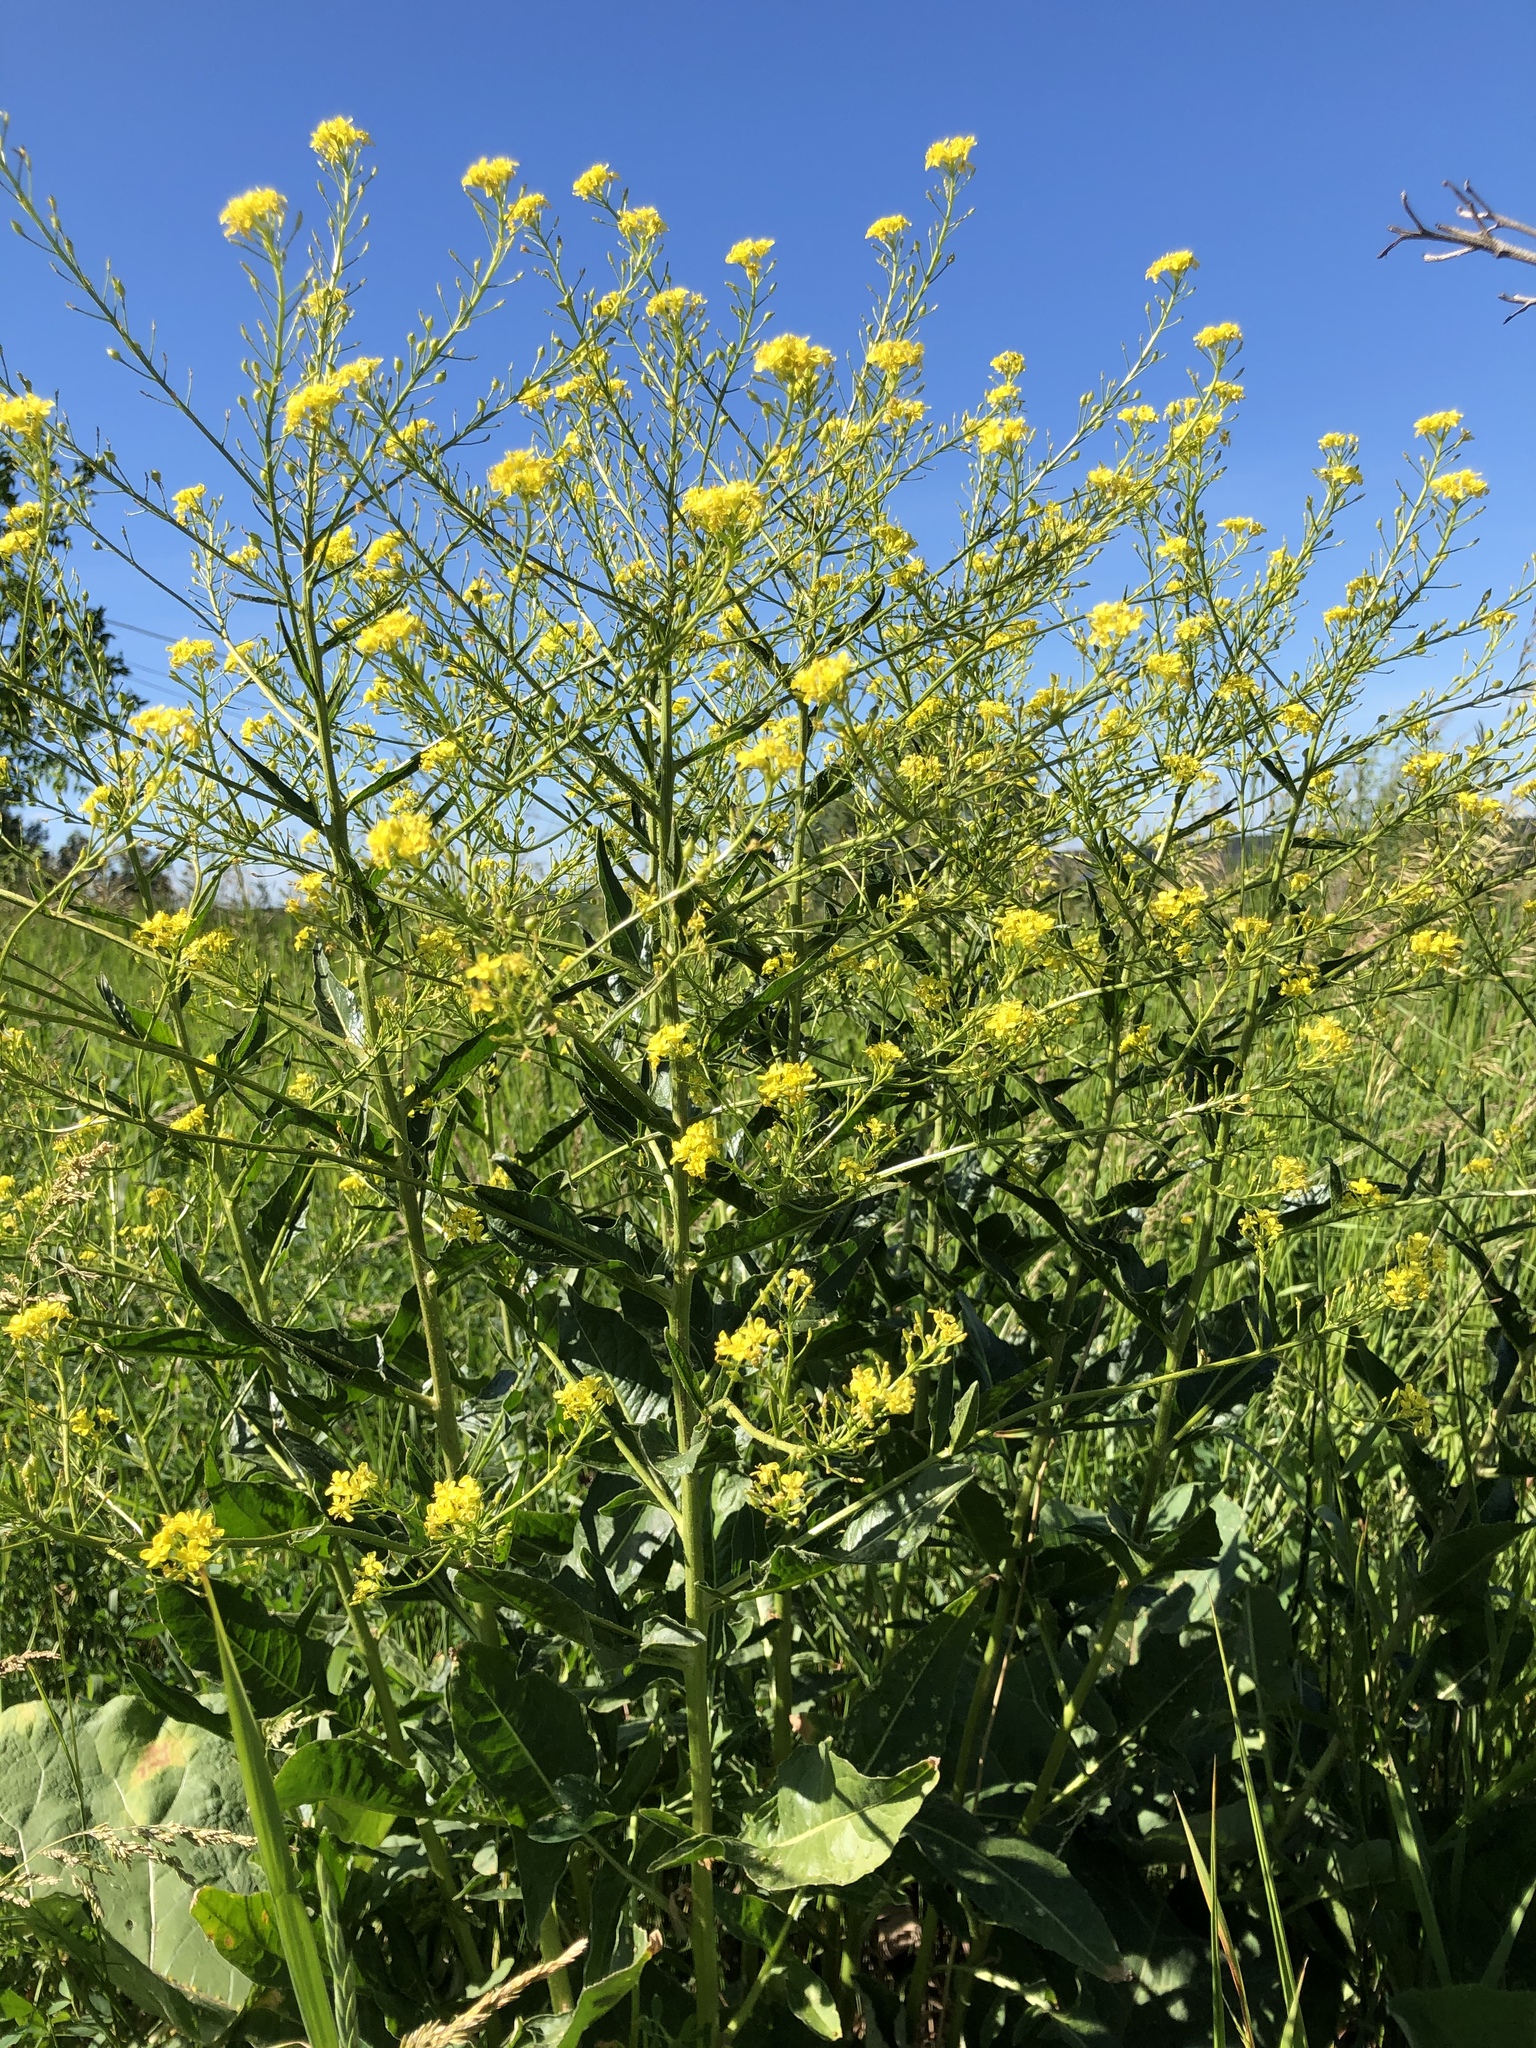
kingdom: Plantae
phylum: Tracheophyta
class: Magnoliopsida
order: Brassicales
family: Brassicaceae
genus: Bunias
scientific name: Bunias orientalis
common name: Warty-cabbage
